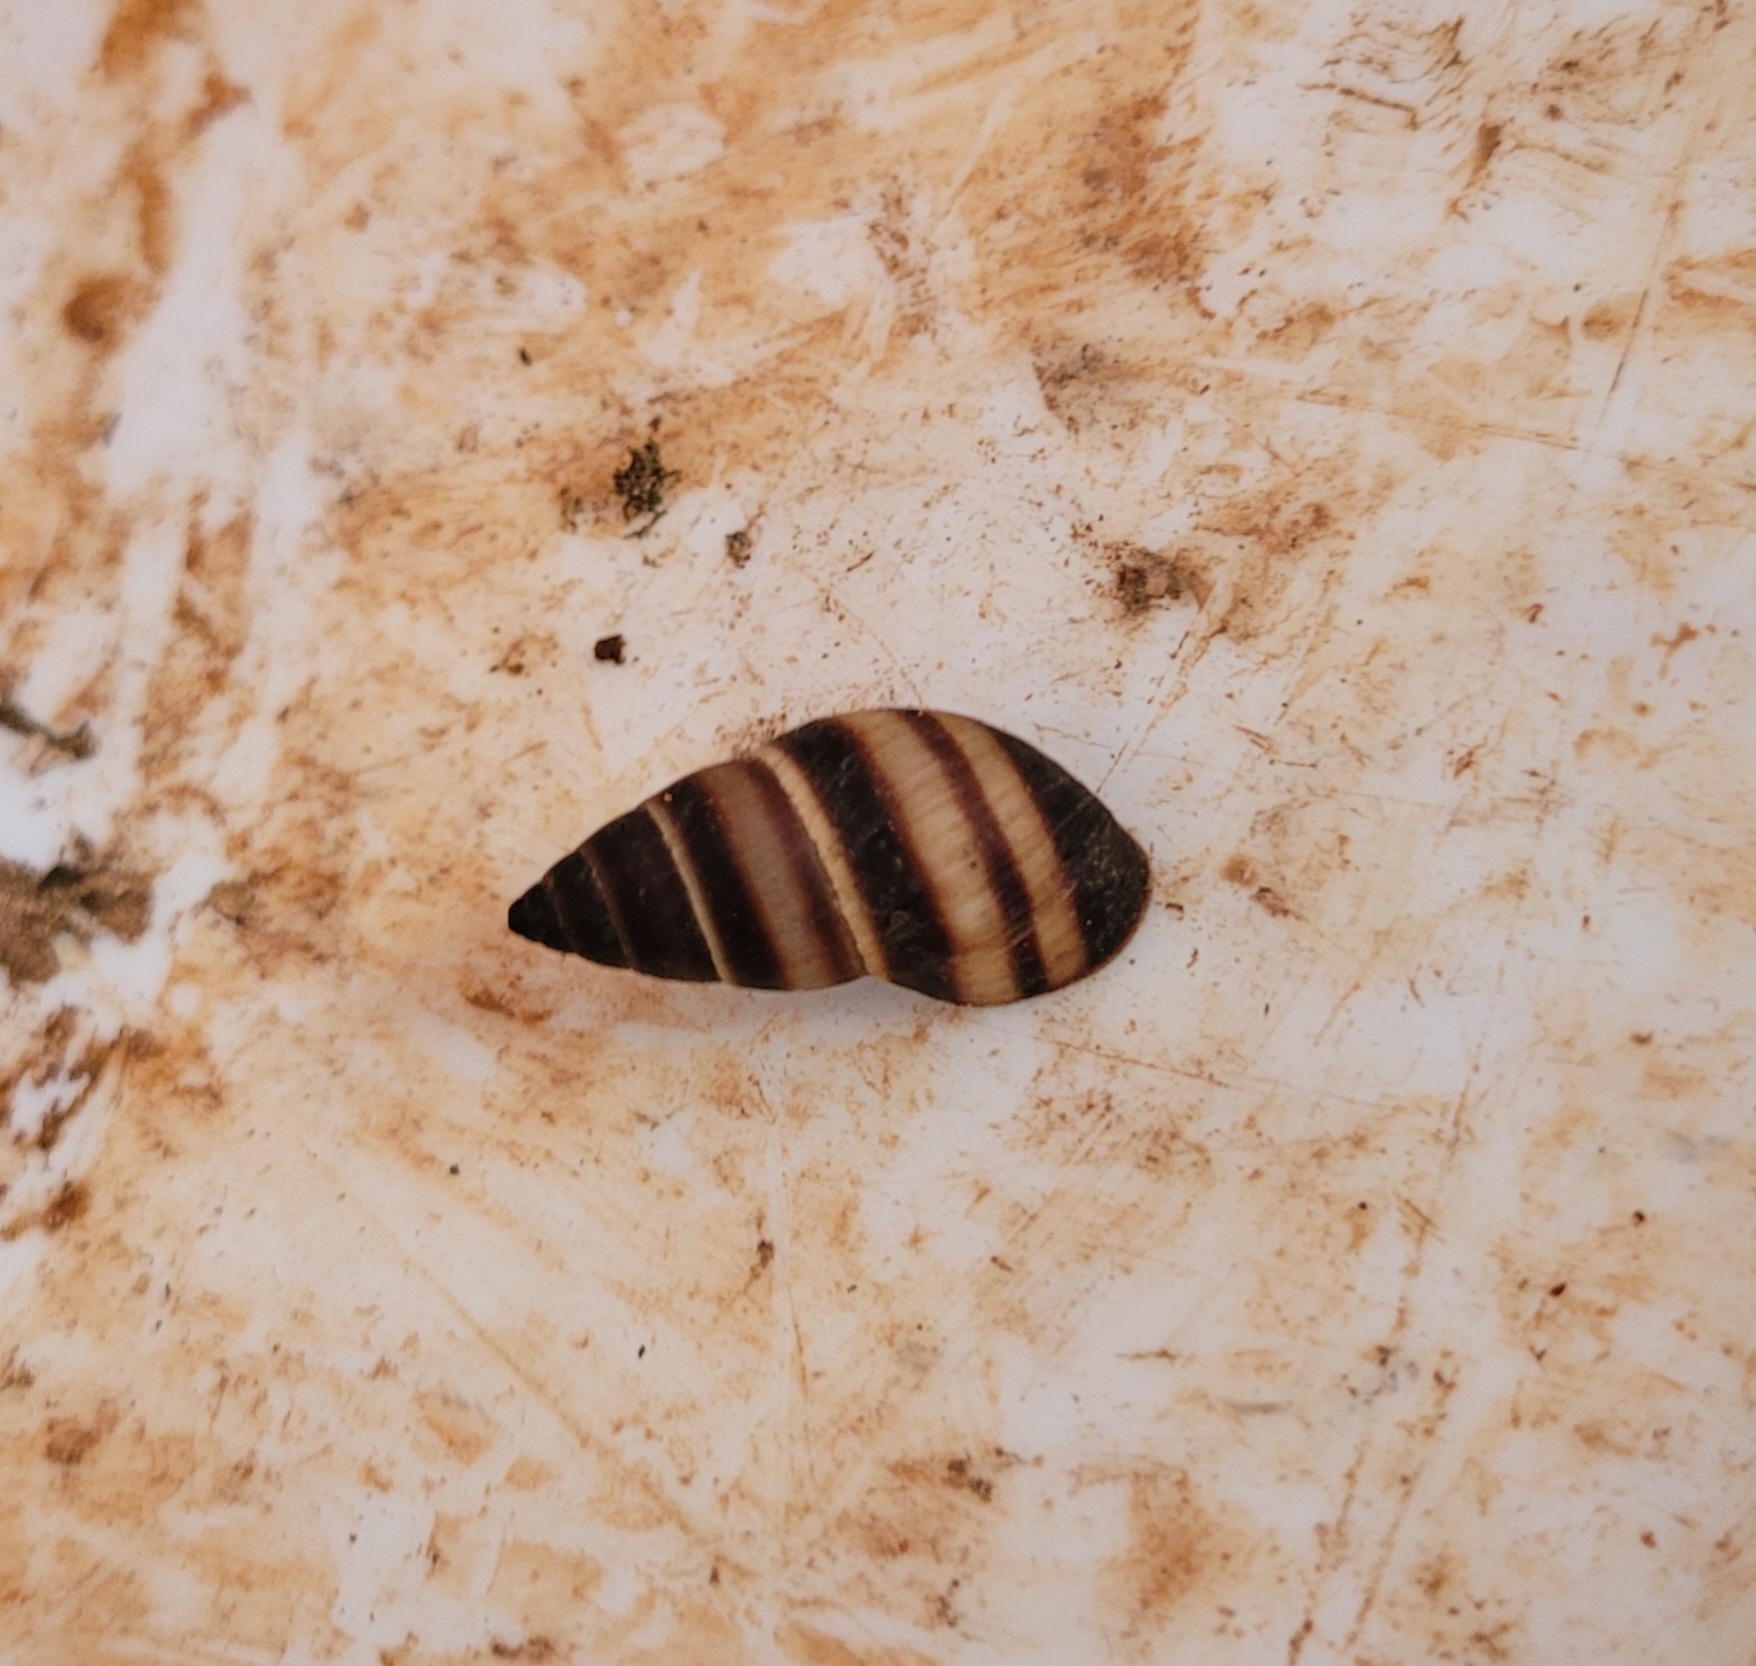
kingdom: Animalia
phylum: Mollusca
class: Gastropoda
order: Stylommatophora
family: Bulimulidae
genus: Bulimulus
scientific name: Bulimulus guadalupensis
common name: West indian bulimulus
